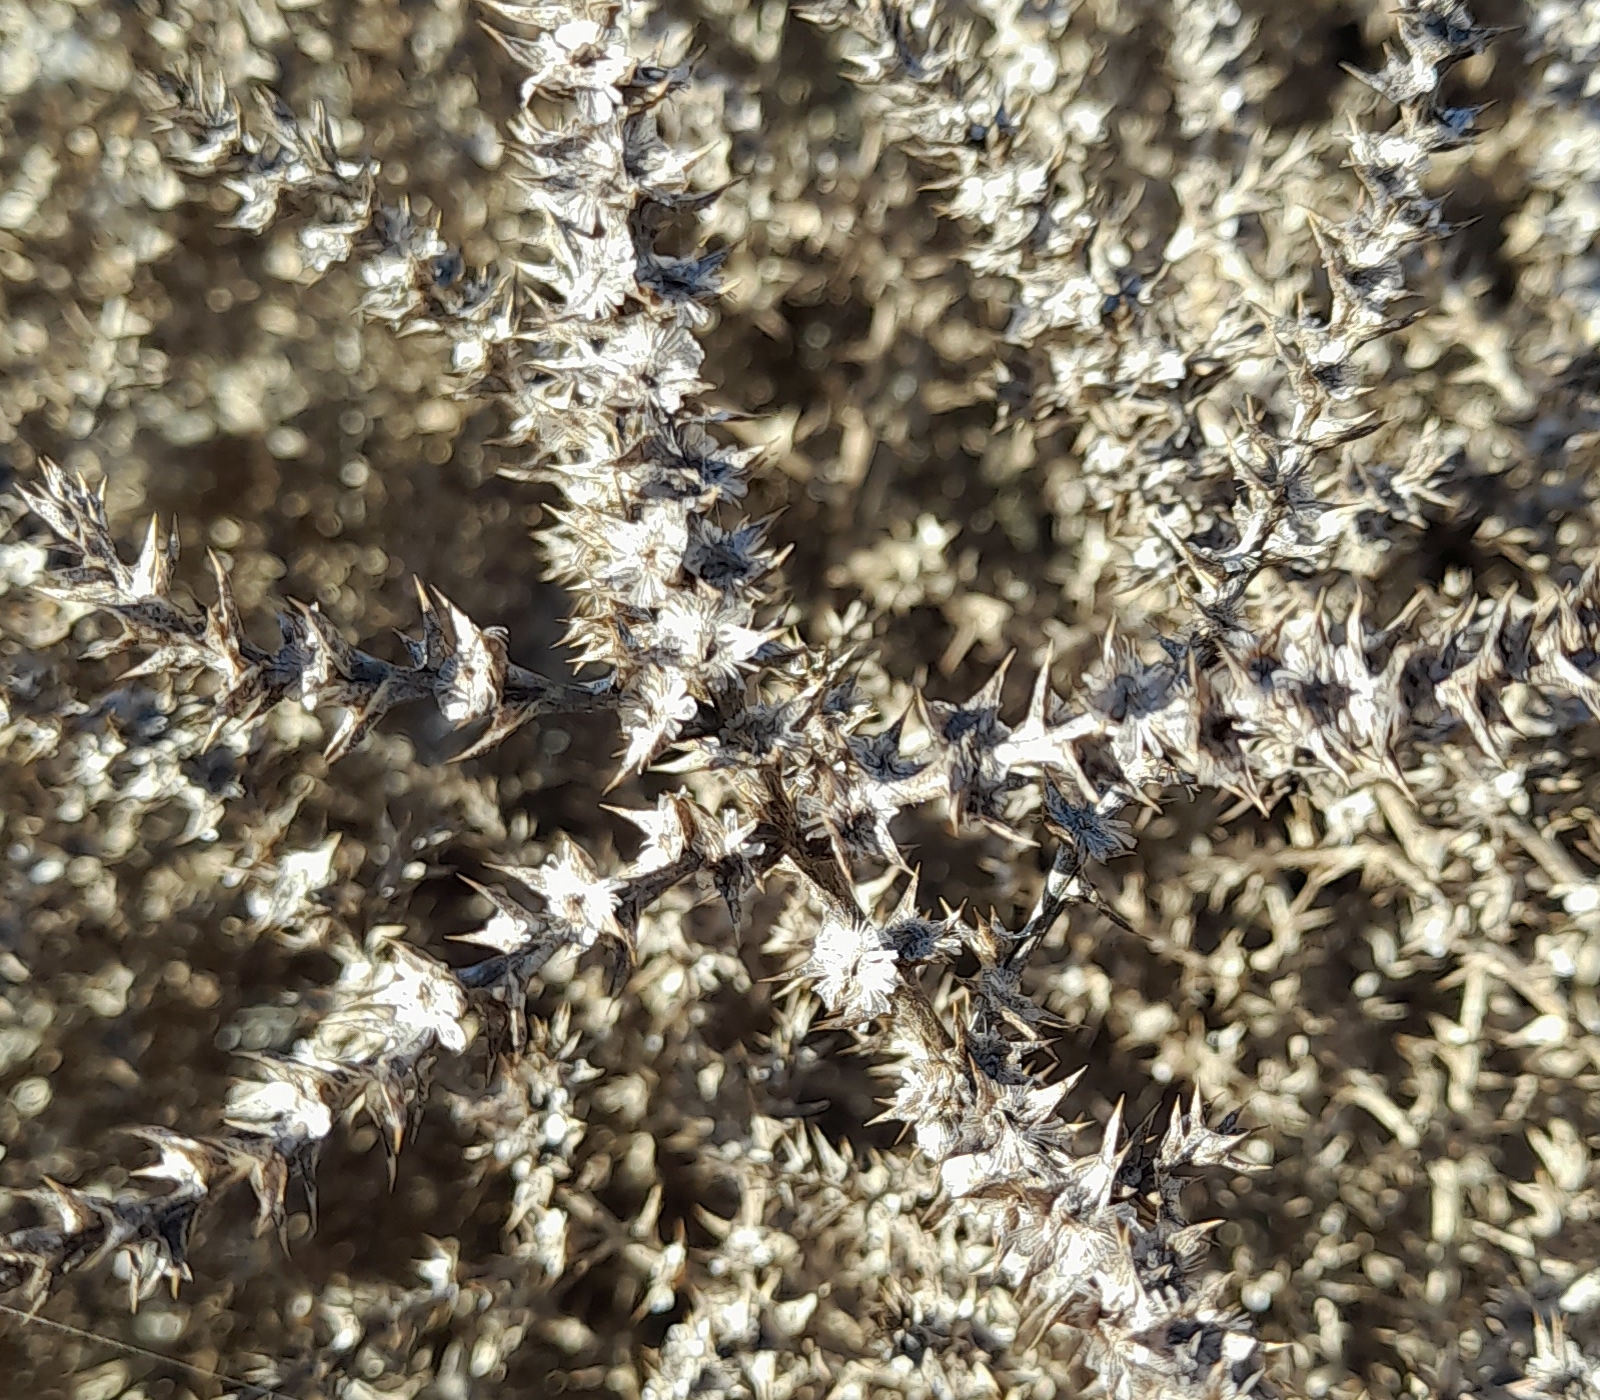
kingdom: Plantae
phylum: Tracheophyta
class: Magnoliopsida
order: Caryophyllales
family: Amaranthaceae
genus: Salsola
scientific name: Salsola tragus
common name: Prickly russian thistle
